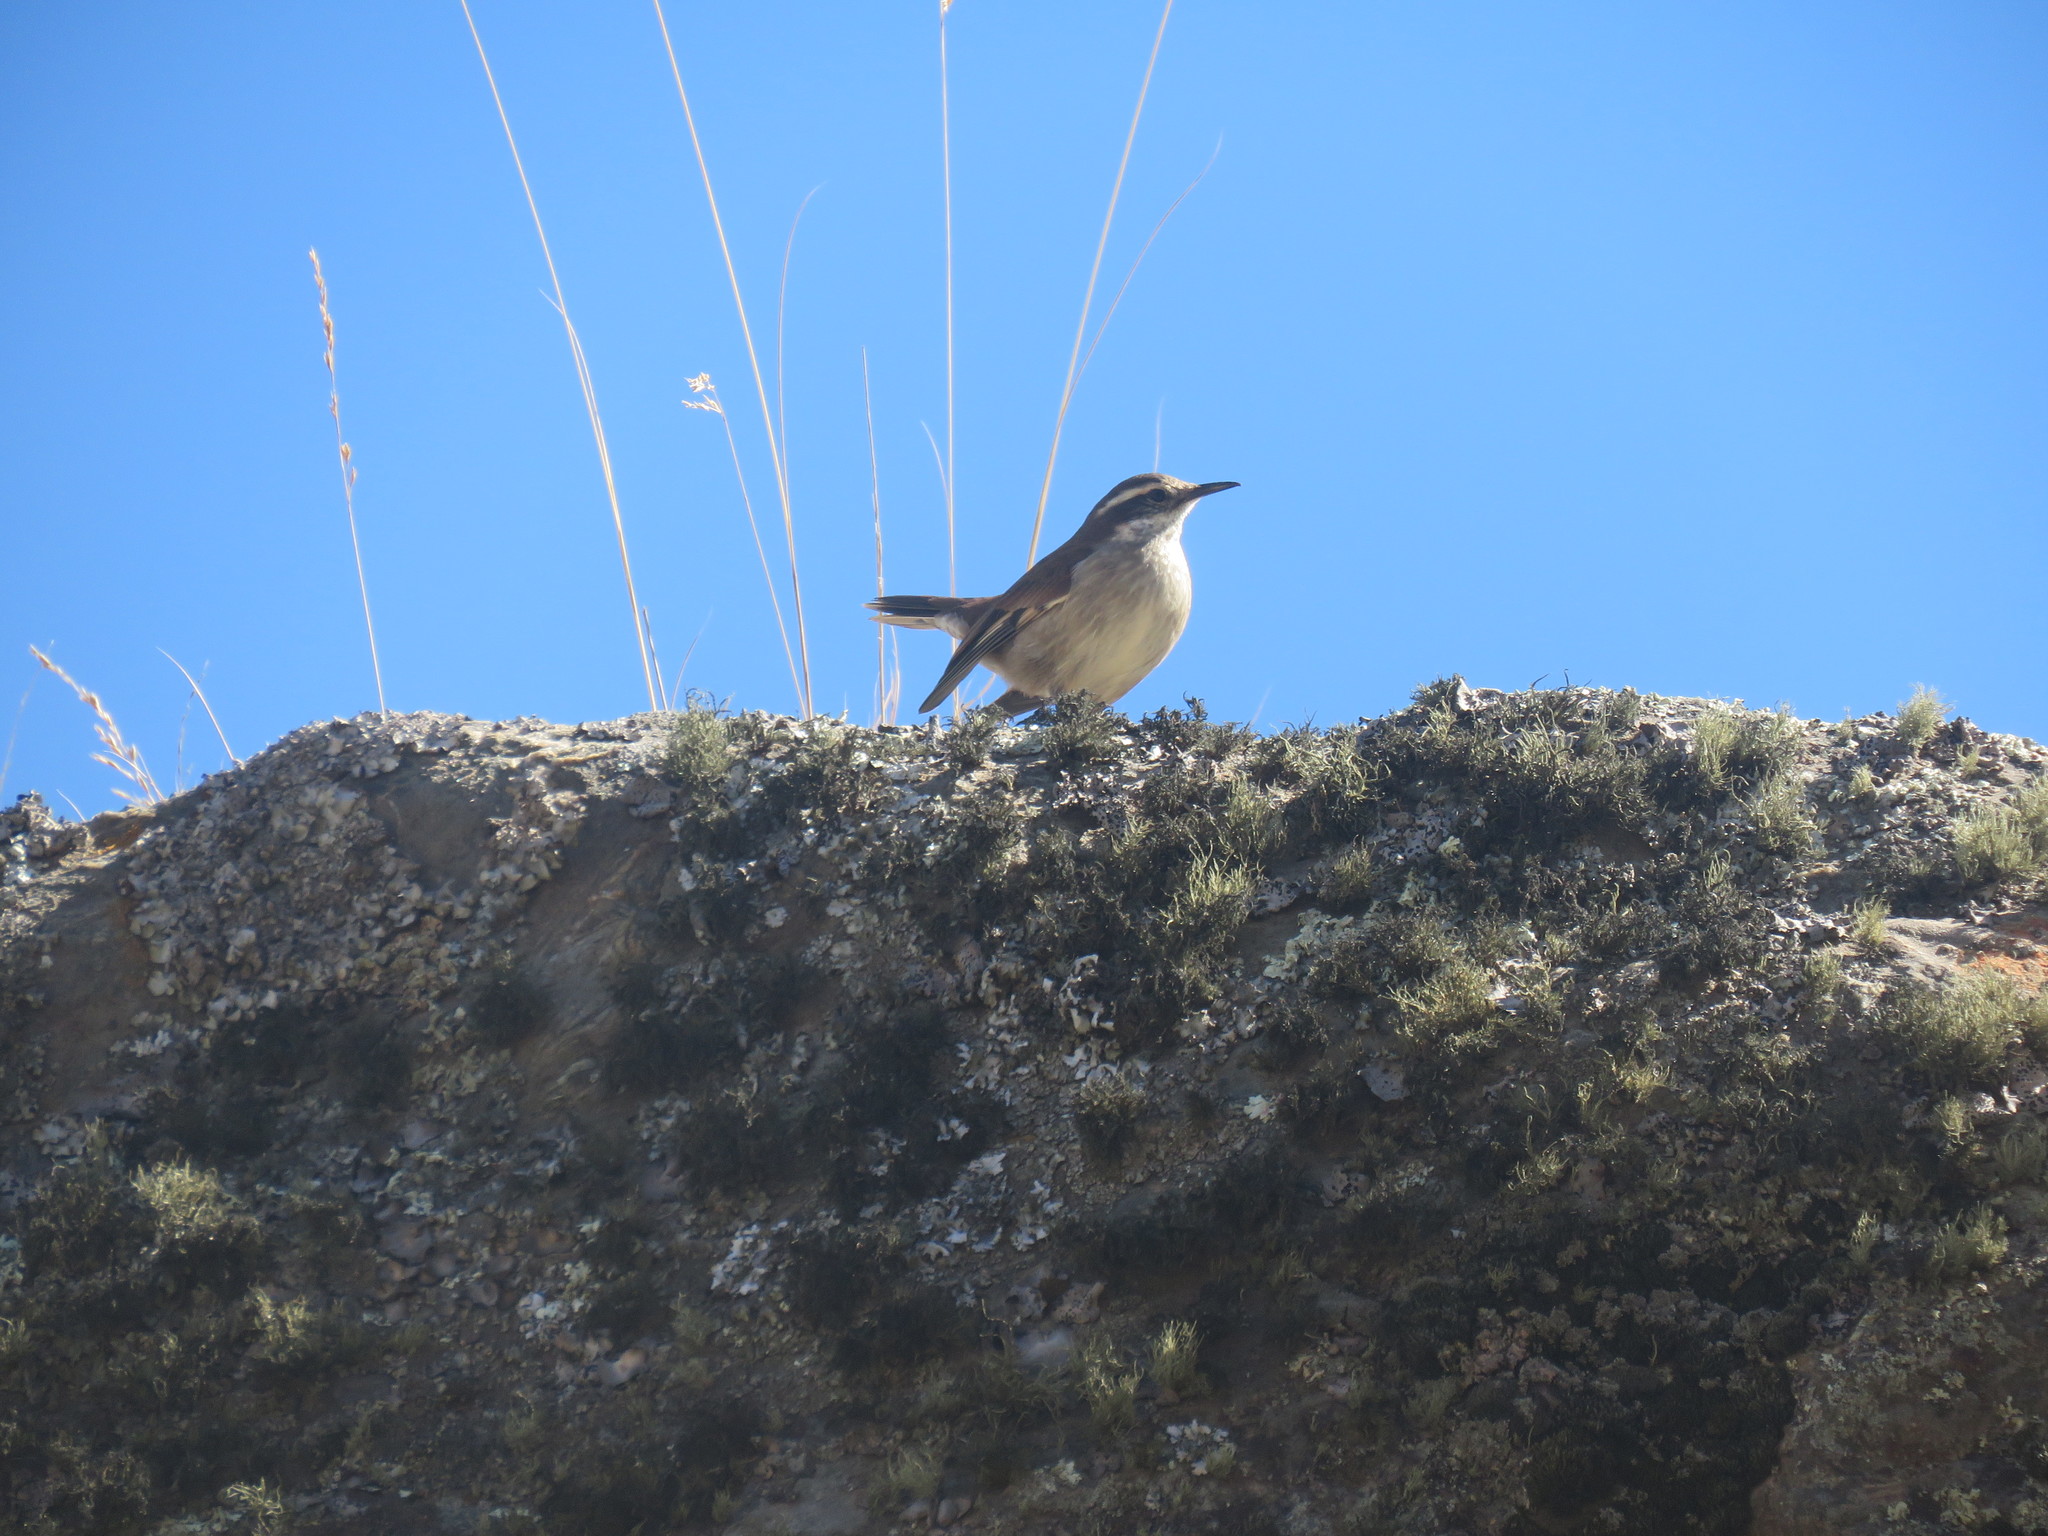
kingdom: Animalia
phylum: Chordata
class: Aves
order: Passeriformes
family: Furnariidae
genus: Cinclodes
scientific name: Cinclodes fuscus
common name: Buff-winged cinclodes
